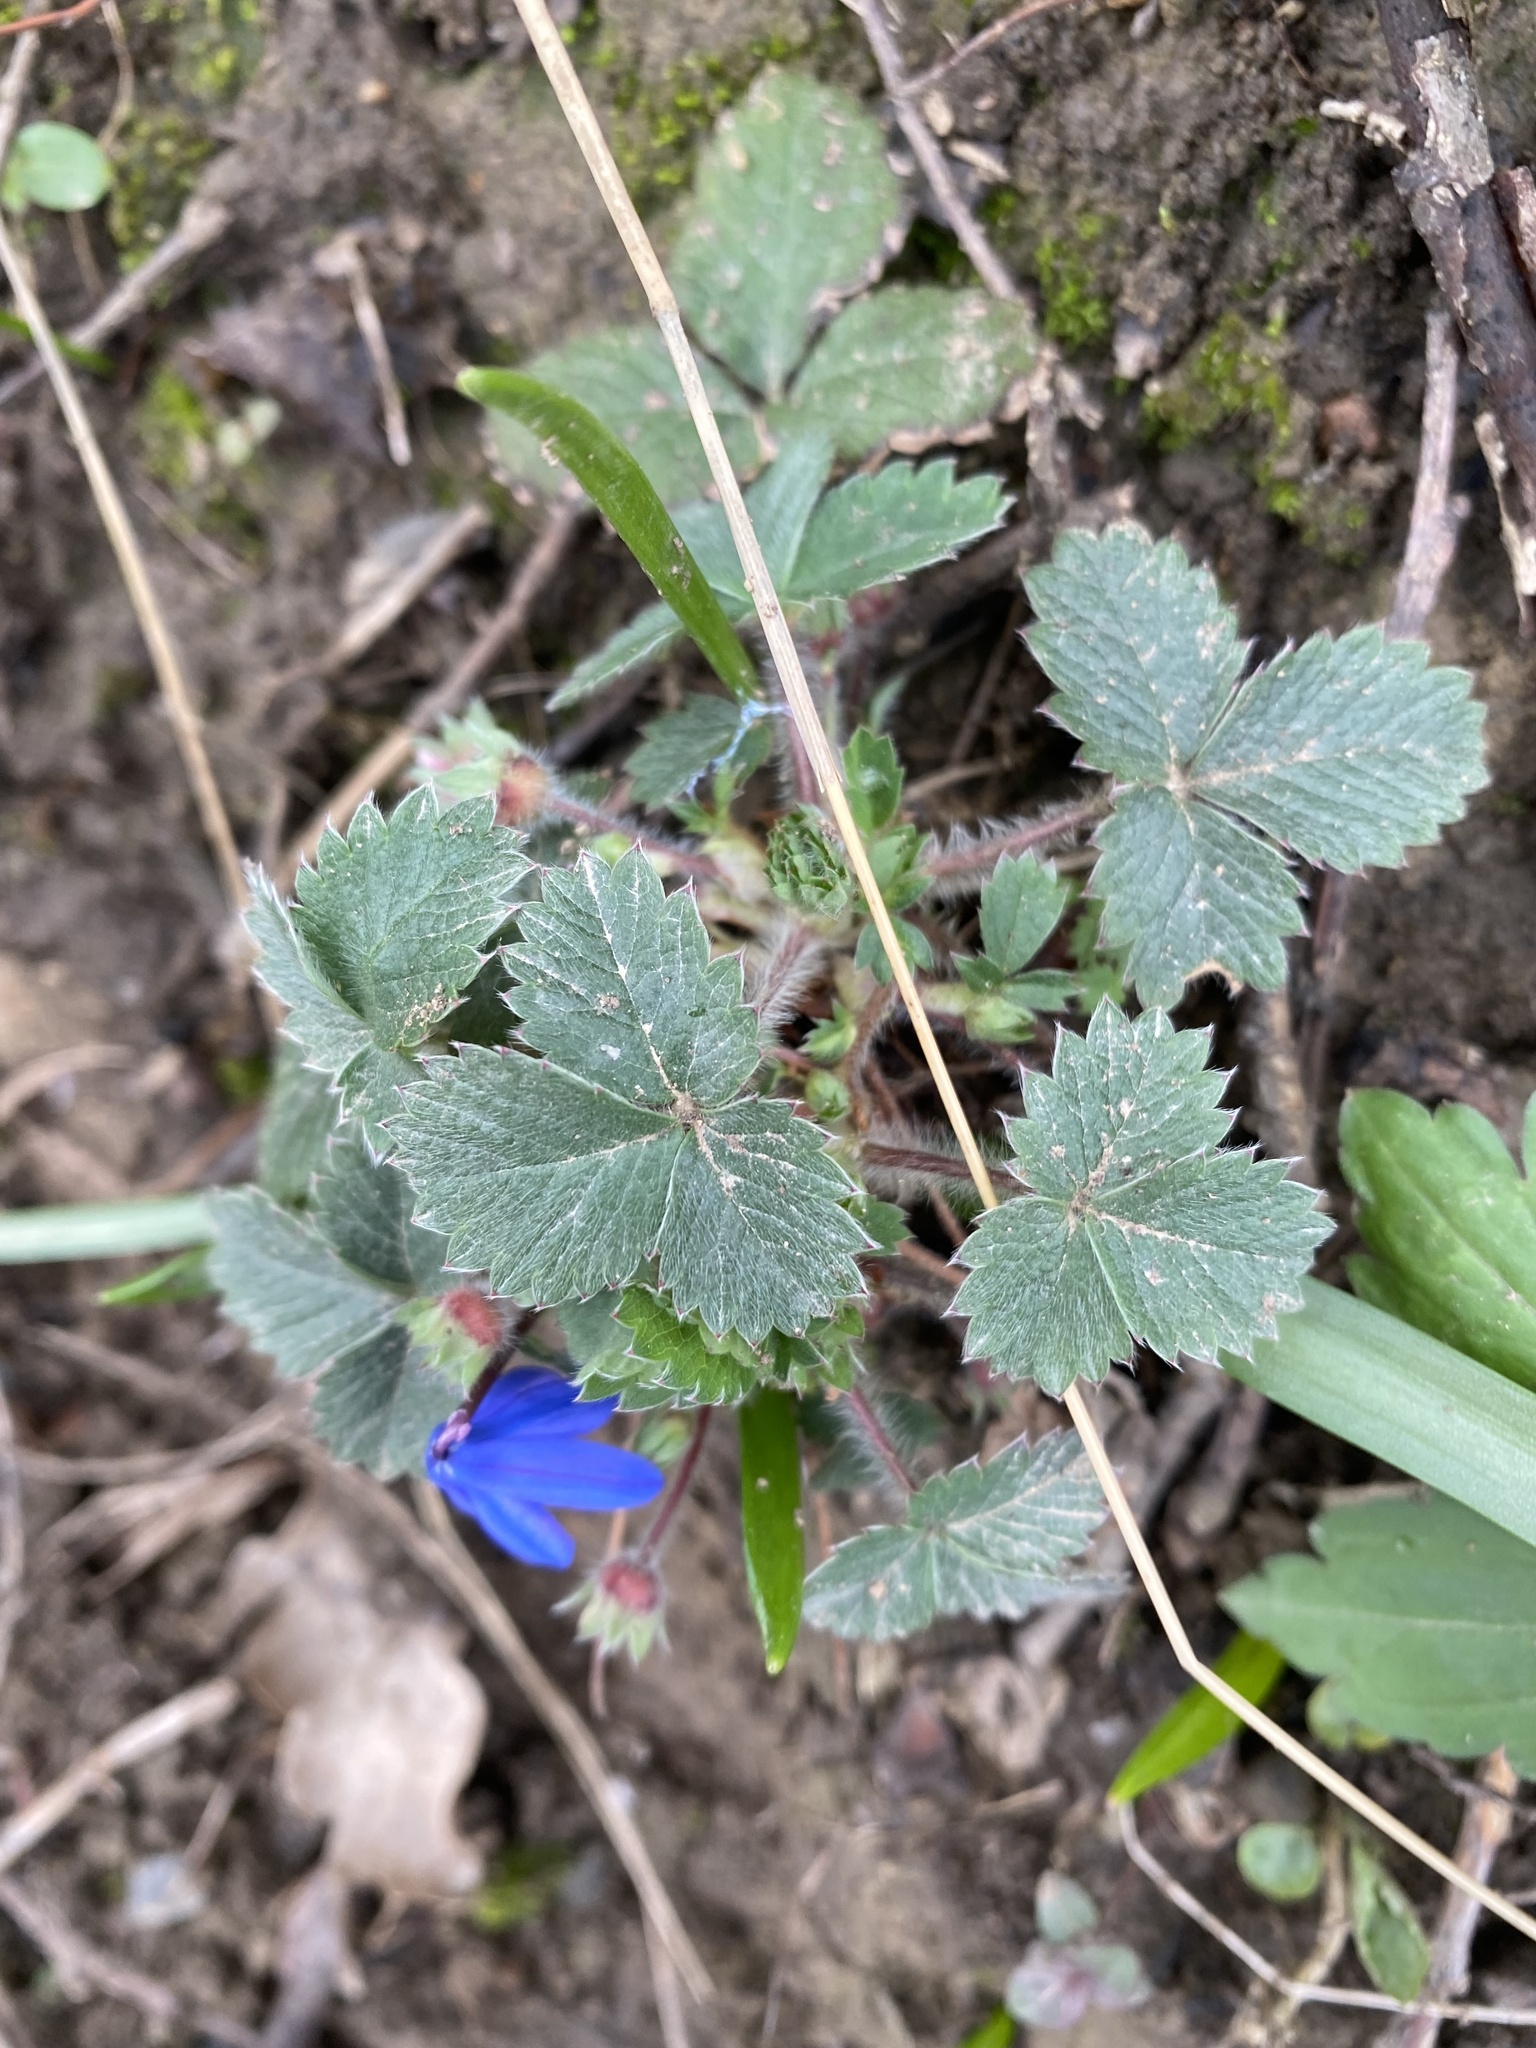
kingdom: Plantae
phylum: Tracheophyta
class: Magnoliopsida
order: Rosales
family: Rosaceae
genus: Potentilla
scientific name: Potentilla micrantha
